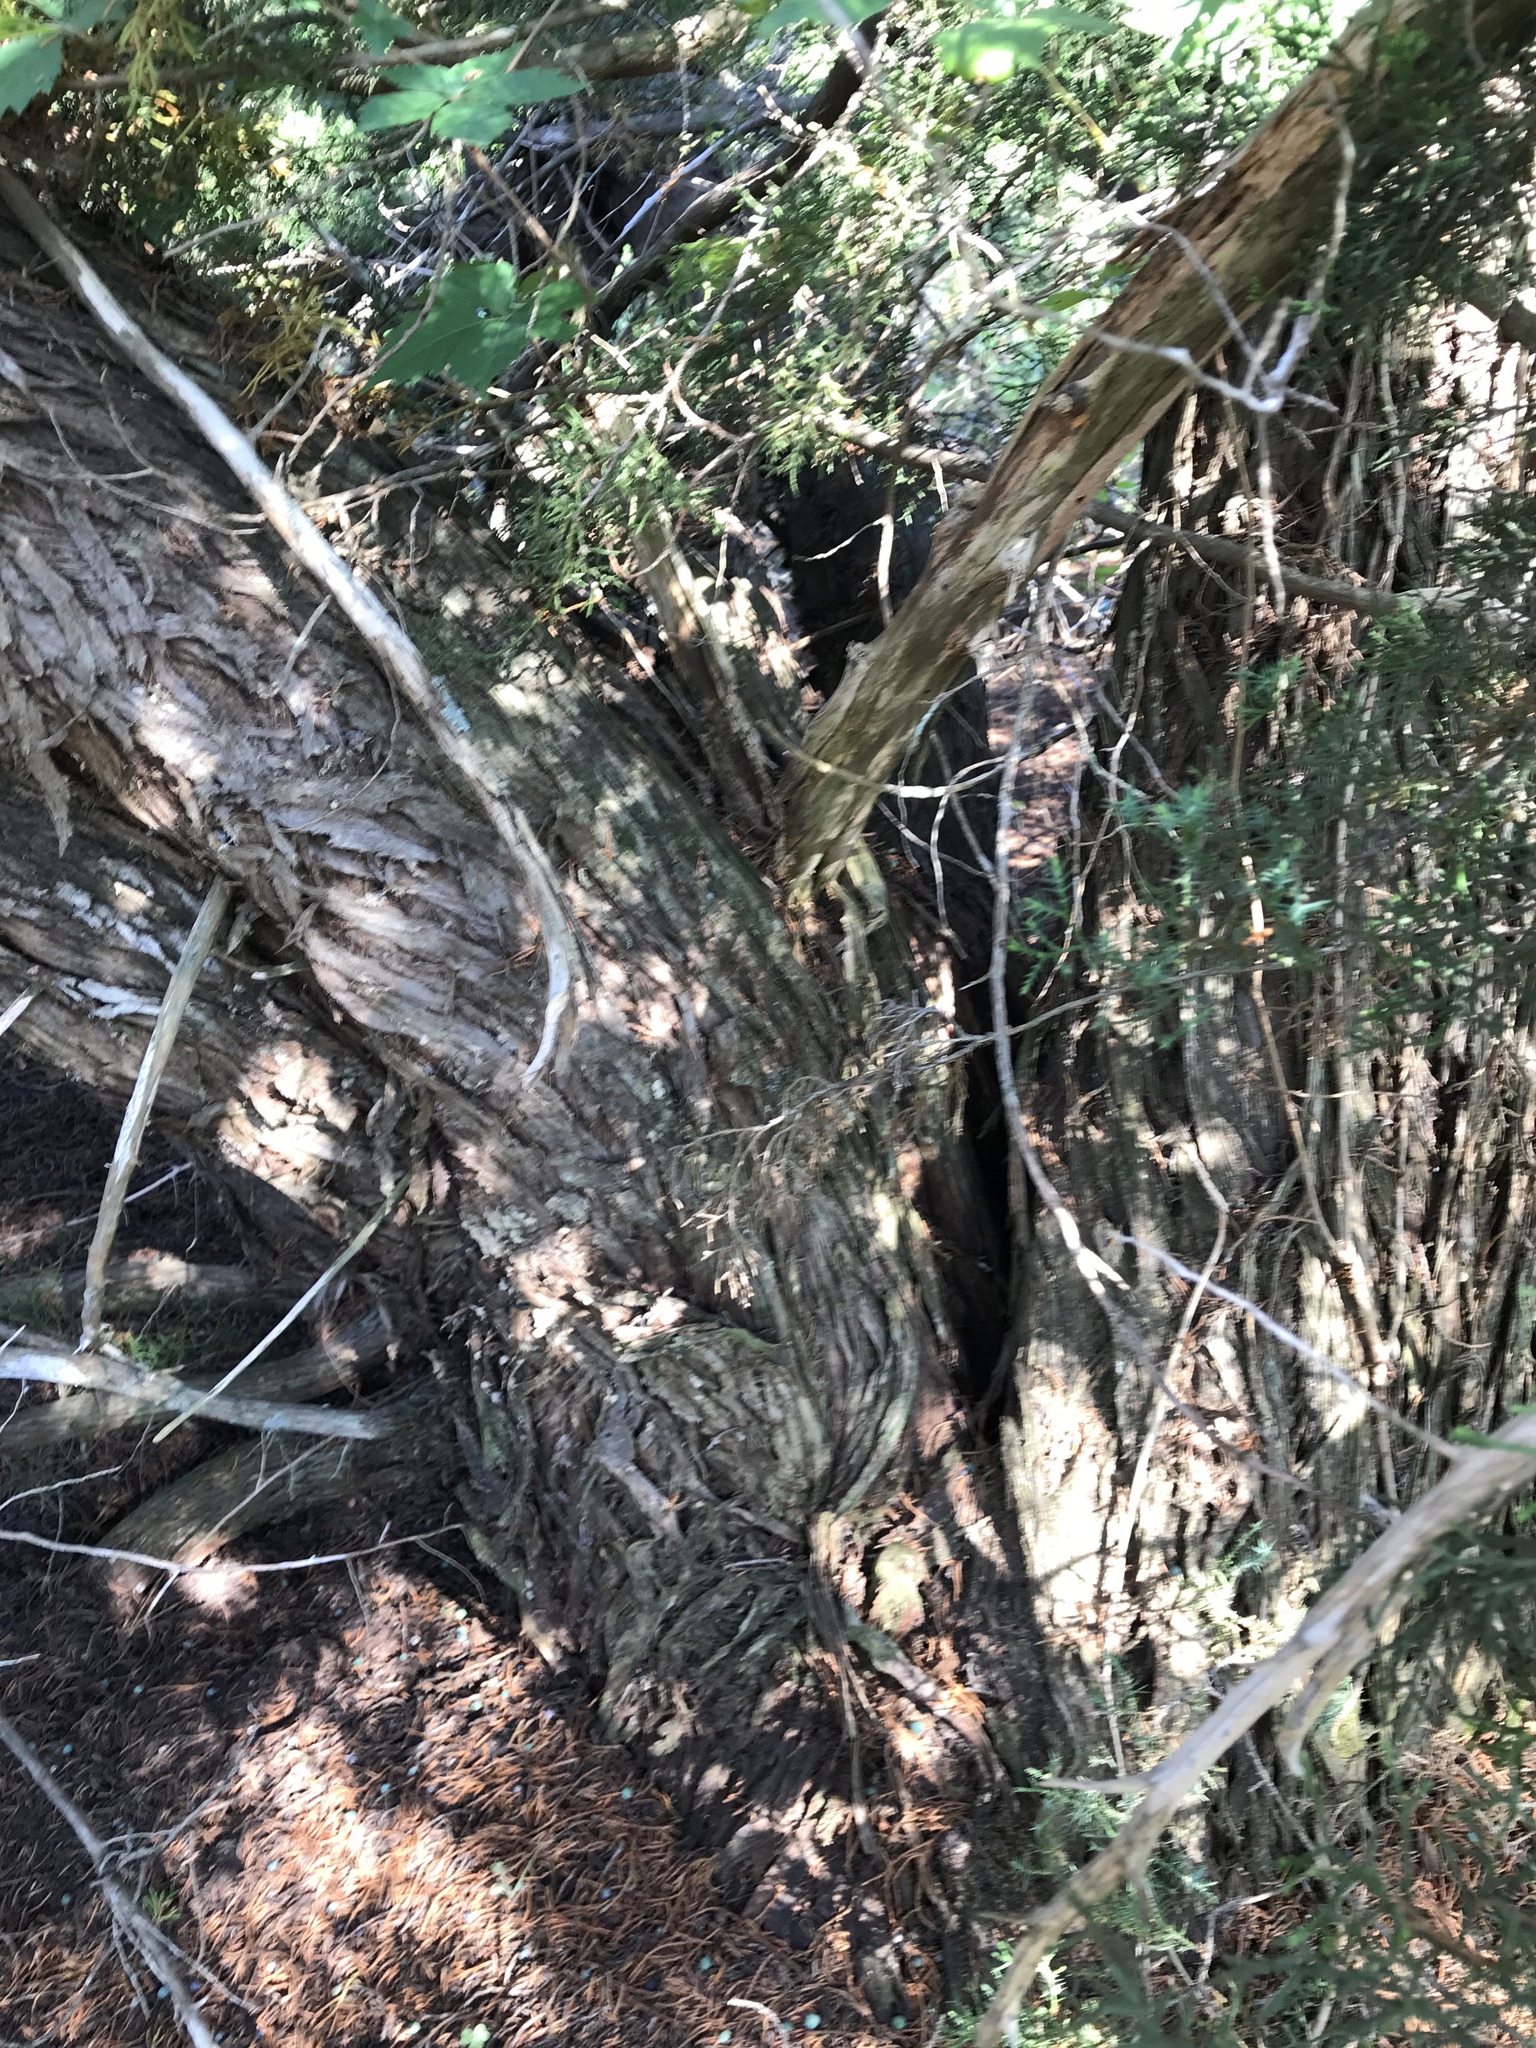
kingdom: Plantae
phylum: Tracheophyta
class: Pinopsida
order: Pinales
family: Cupressaceae
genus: Juniperus
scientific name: Juniperus ashei
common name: Mexican juniper
